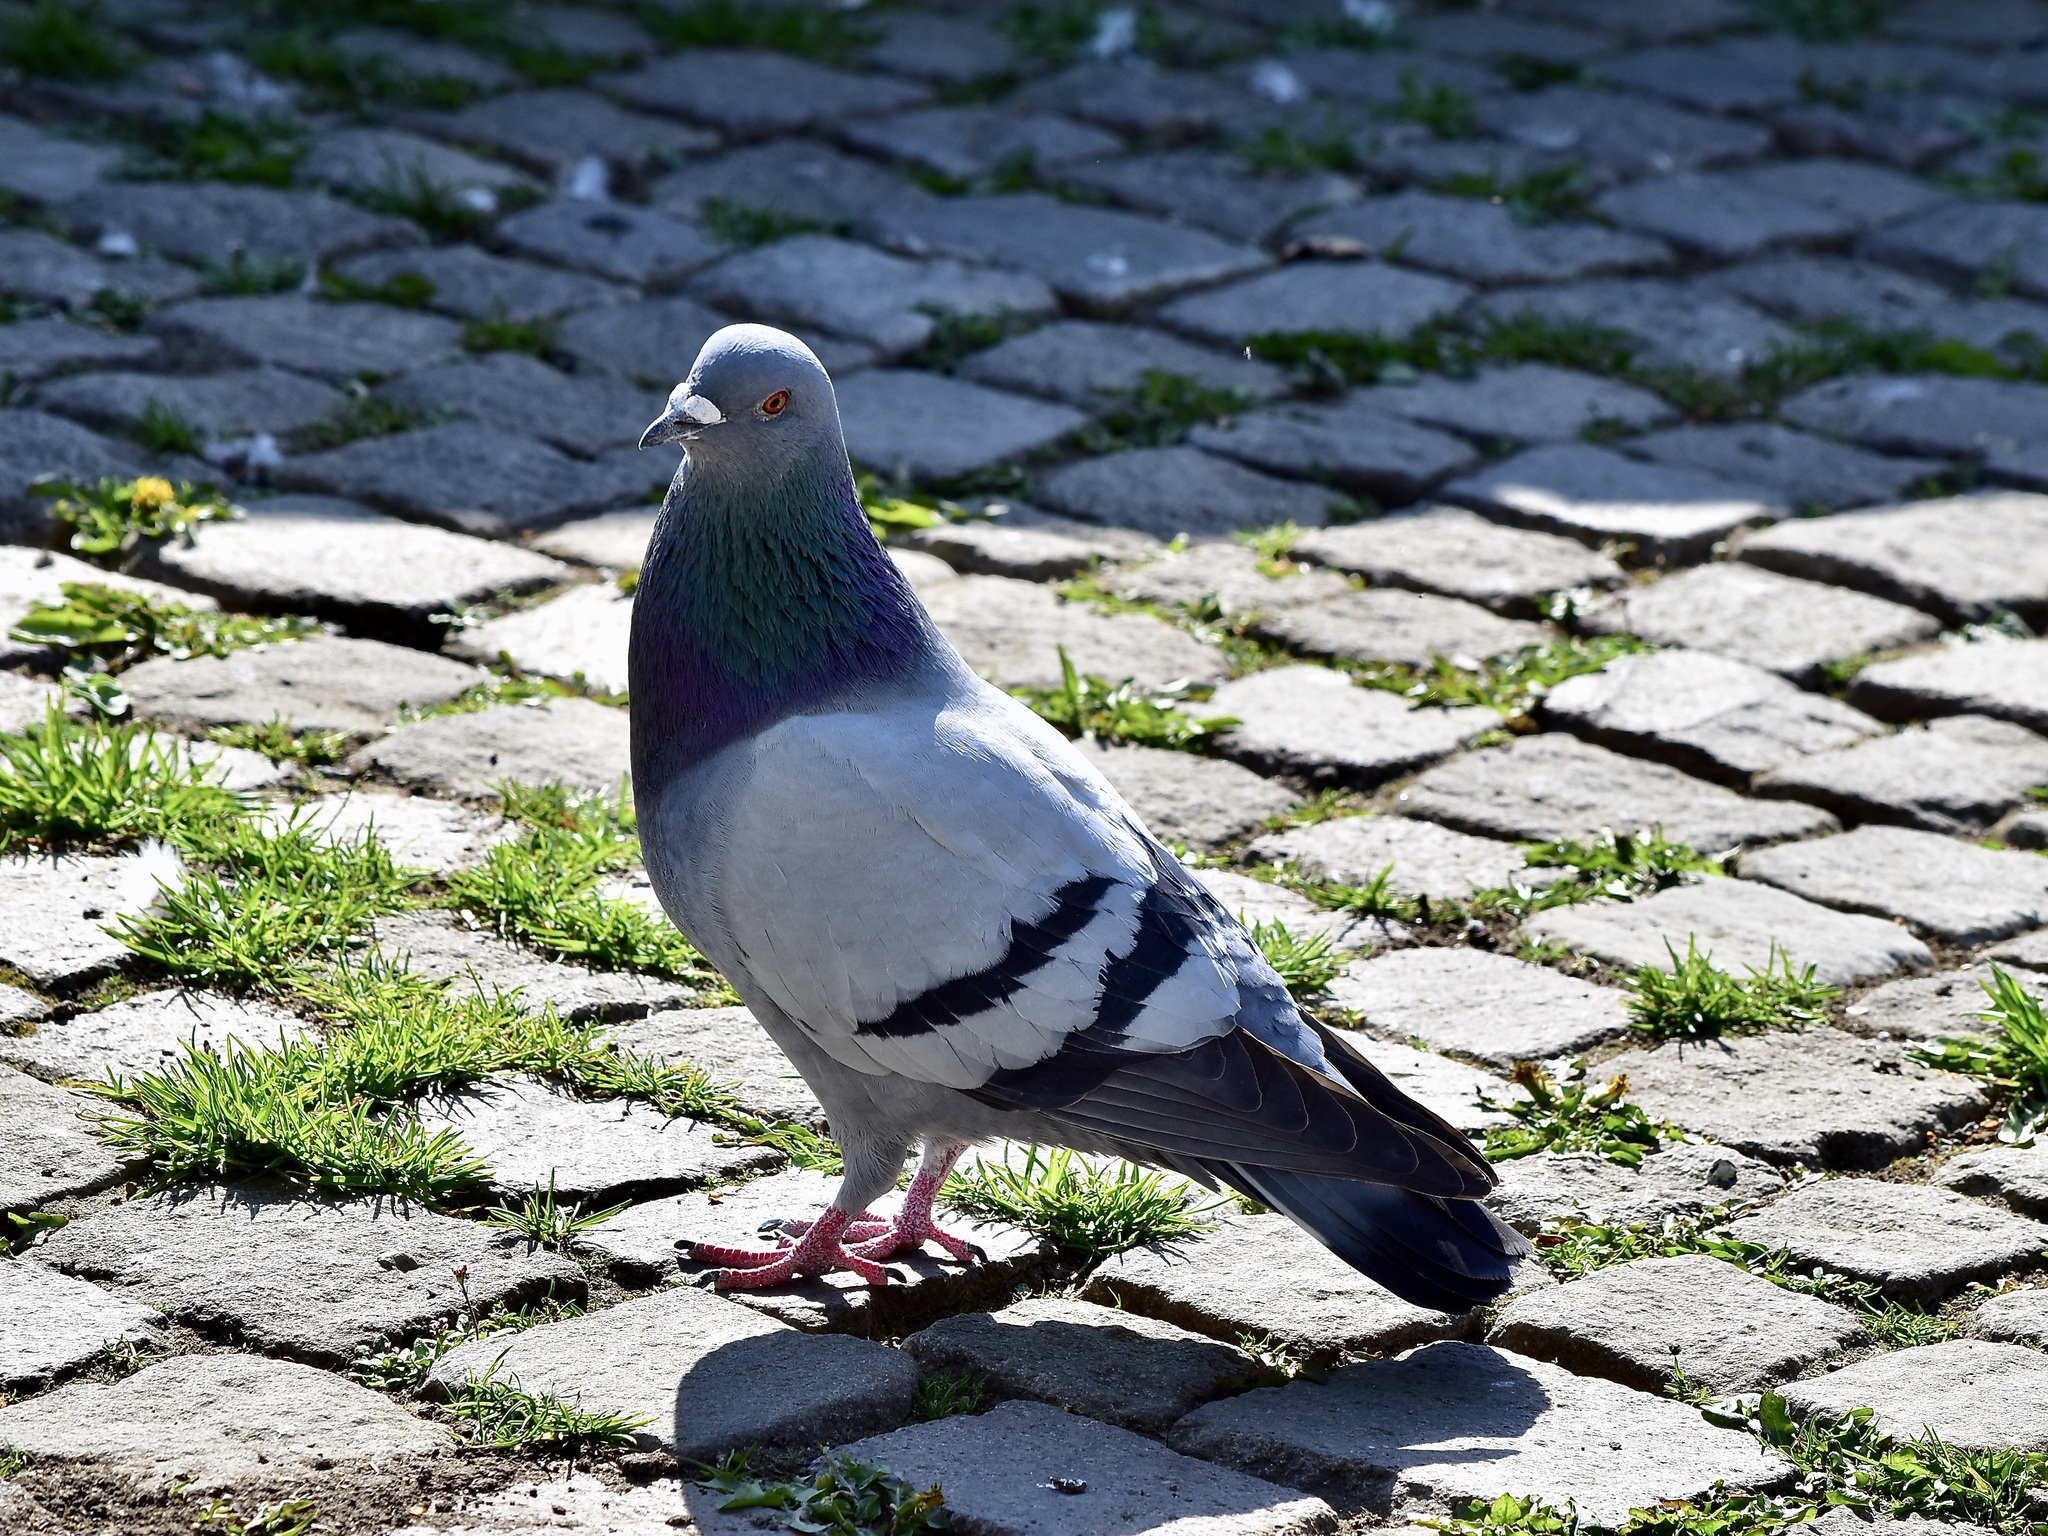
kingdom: Animalia
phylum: Chordata
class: Aves
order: Columbiformes
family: Columbidae
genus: Columba
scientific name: Columba livia
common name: Rock pigeon
